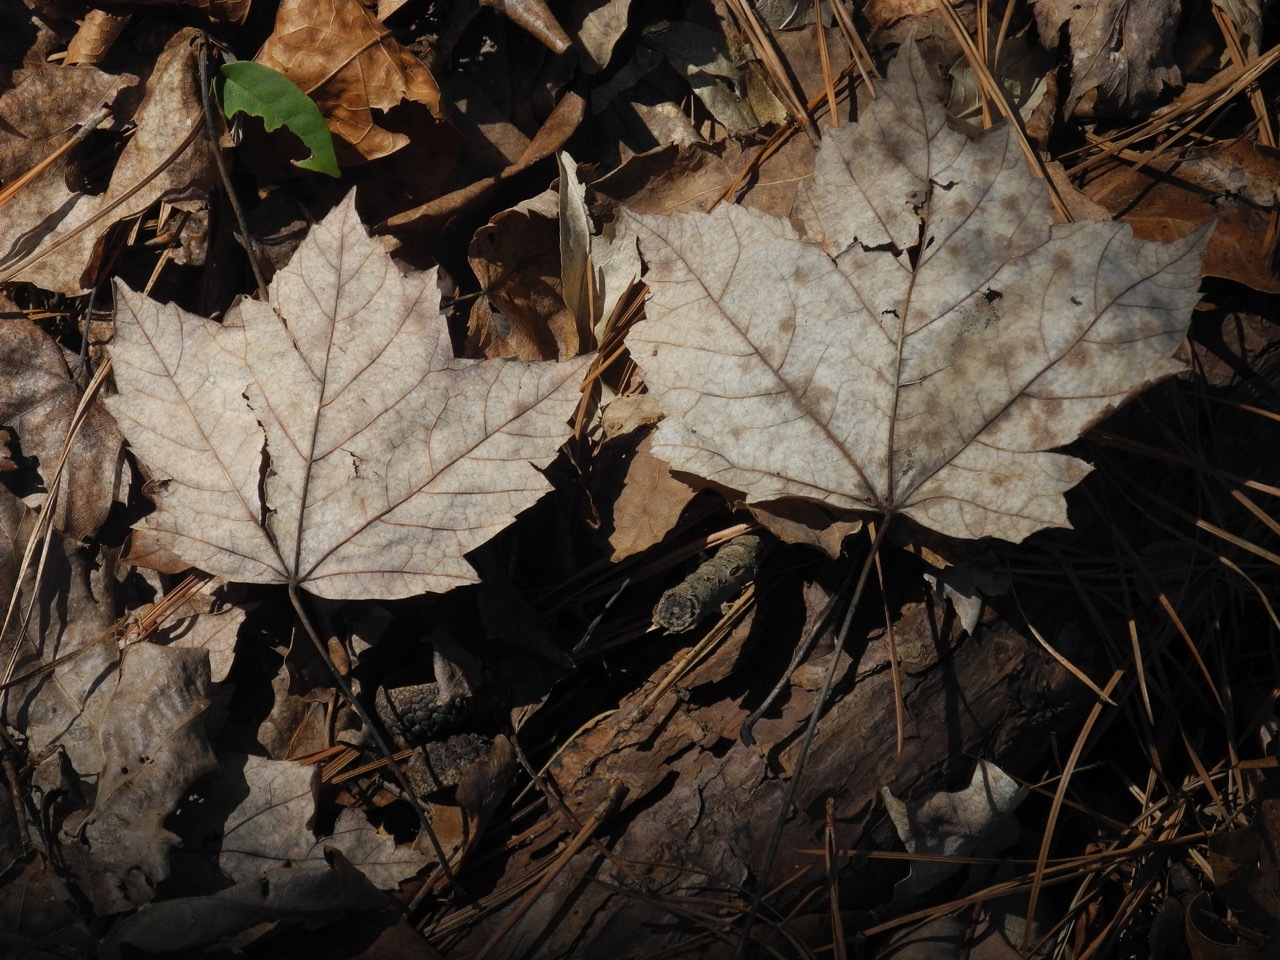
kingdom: Plantae
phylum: Tracheophyta
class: Magnoliopsida
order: Sapindales
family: Sapindaceae
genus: Acer
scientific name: Acer freemanii
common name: Freeman maple
